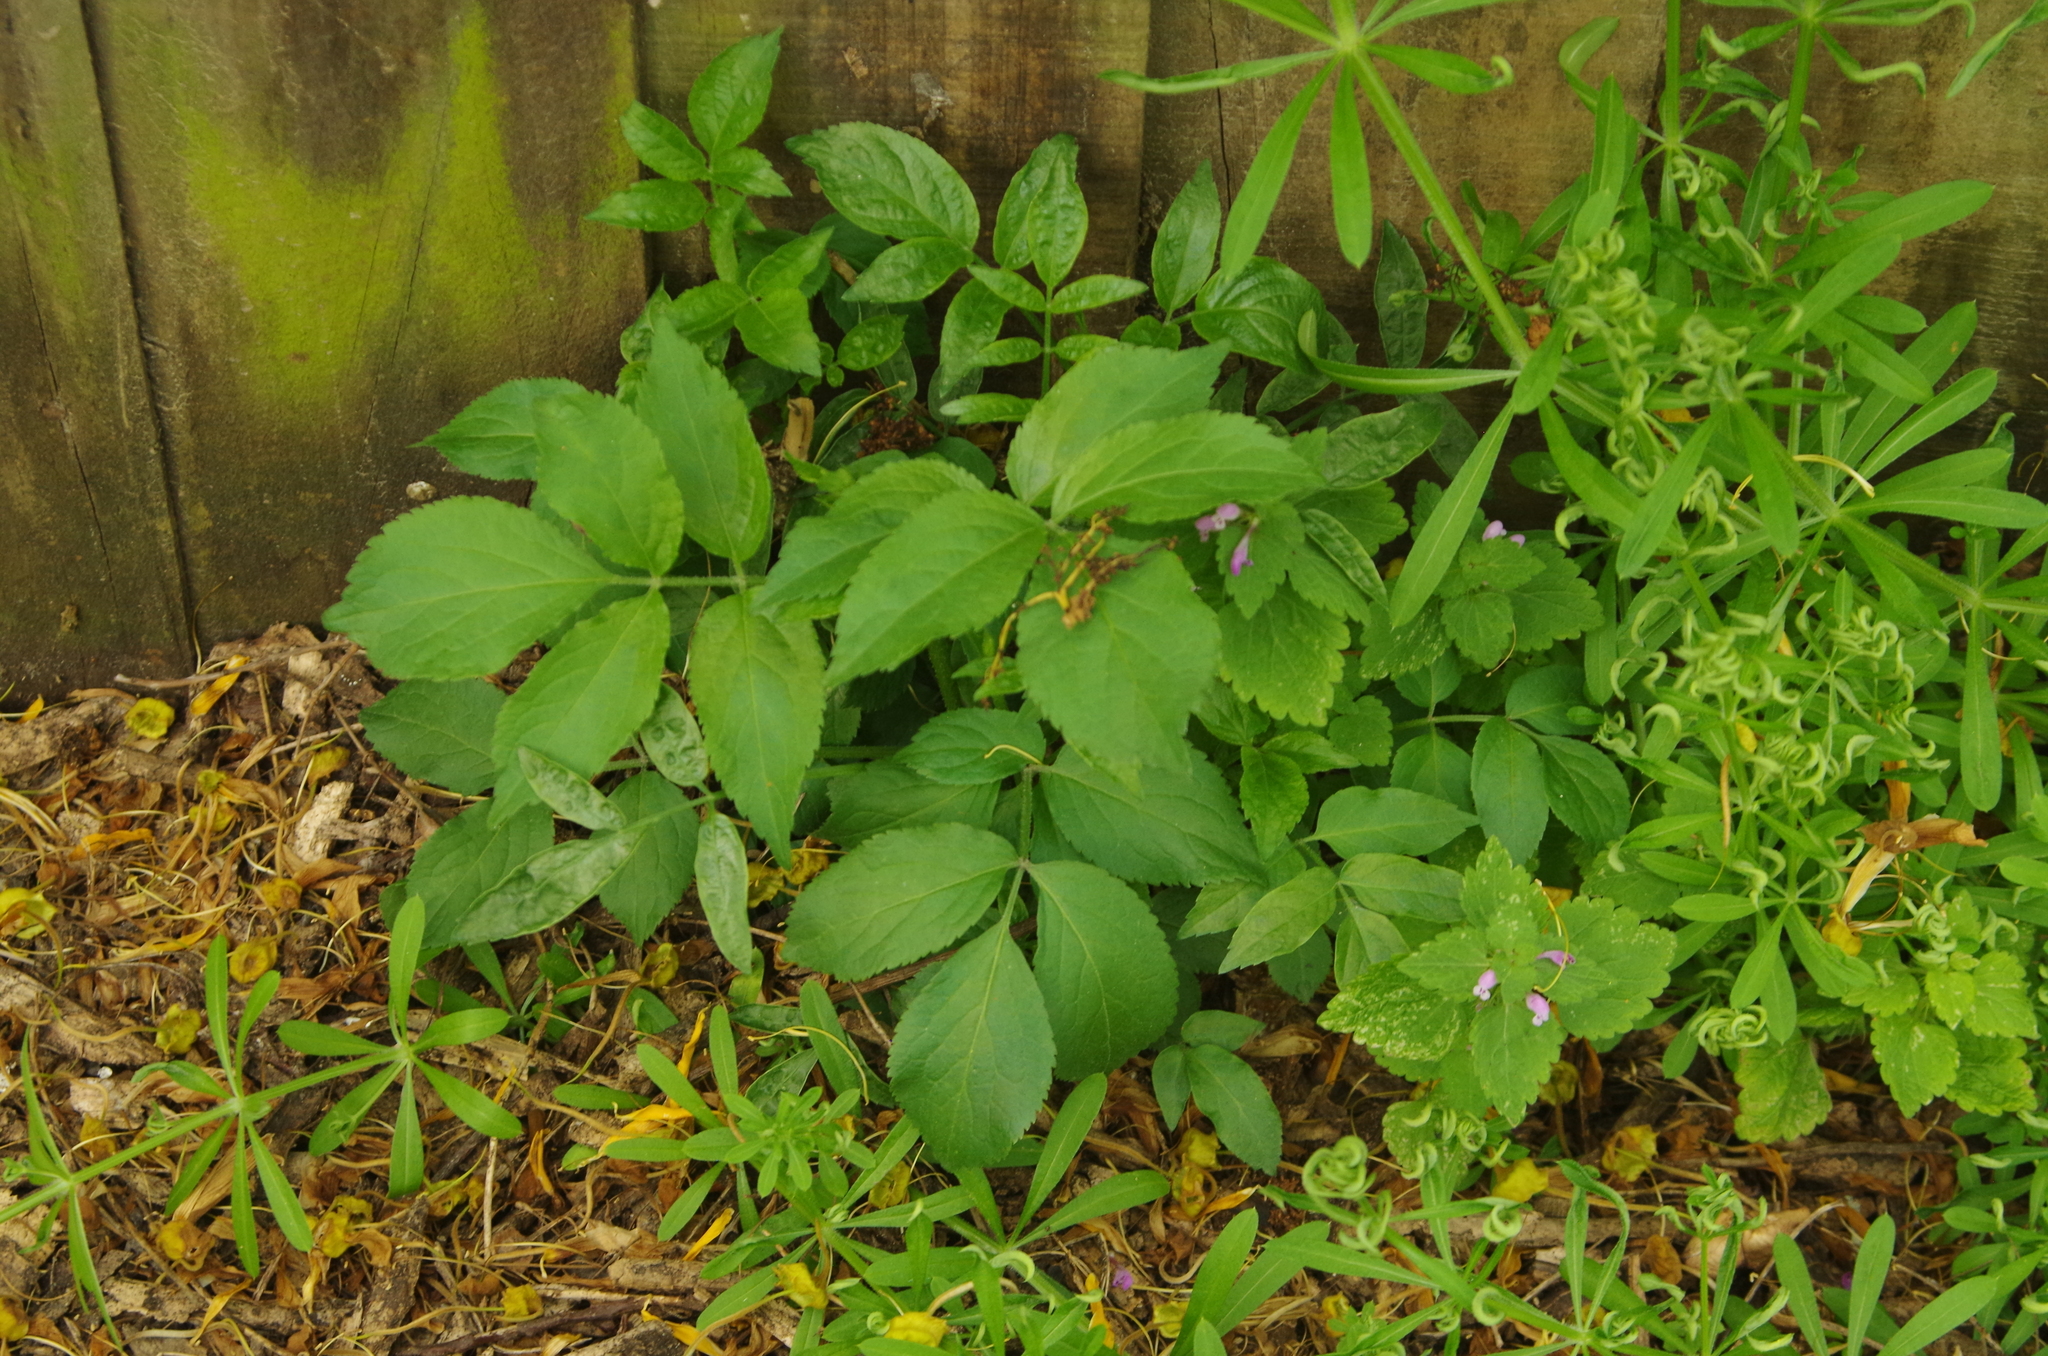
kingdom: Plantae
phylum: Tracheophyta
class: Magnoliopsida
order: Dipsacales
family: Viburnaceae
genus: Sambucus
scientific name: Sambucus nigra
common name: Elder
